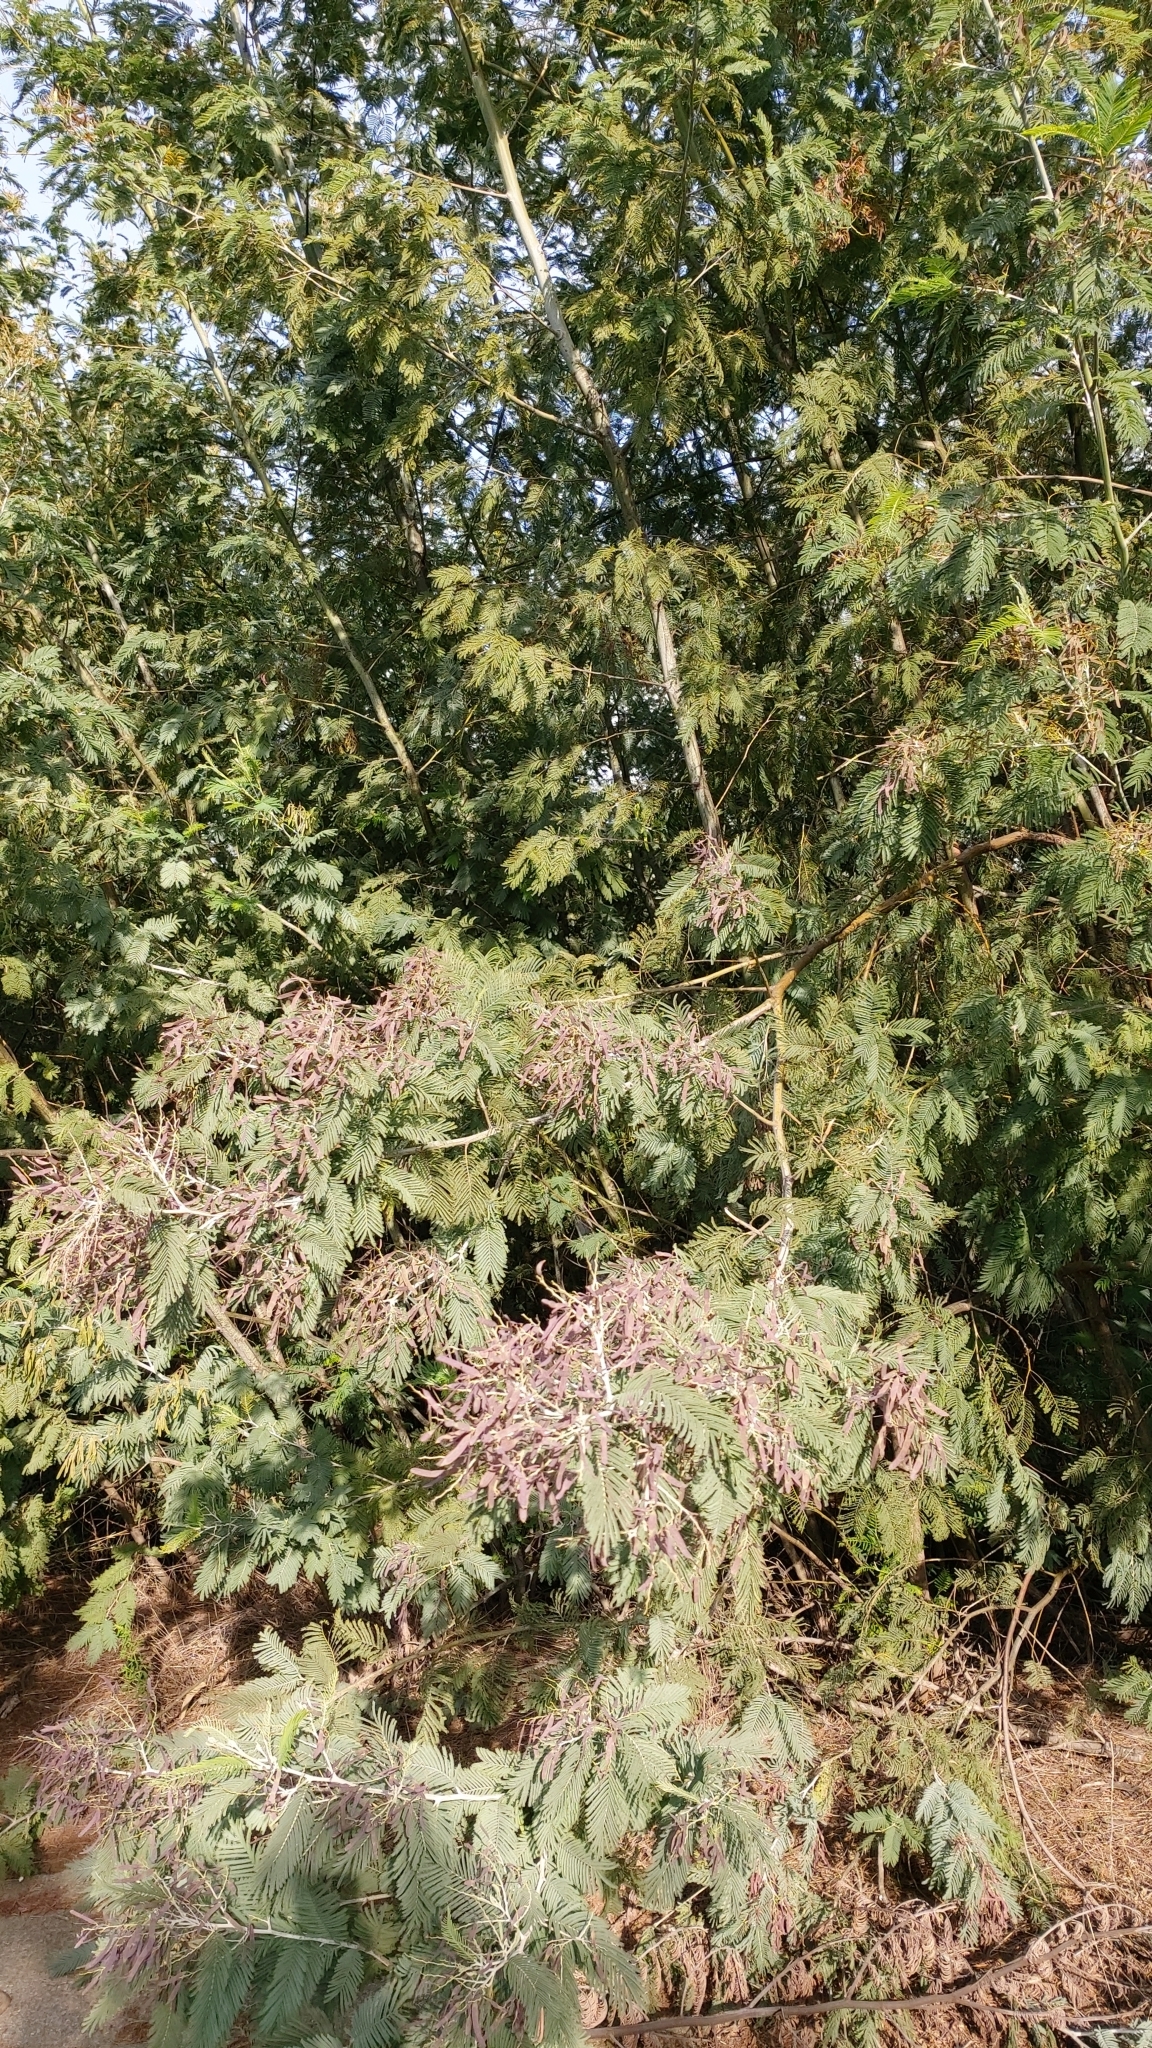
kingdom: Plantae
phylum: Tracheophyta
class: Magnoliopsida
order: Fabales
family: Fabaceae
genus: Acacia
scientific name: Acacia dealbata
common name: Silver wattle
